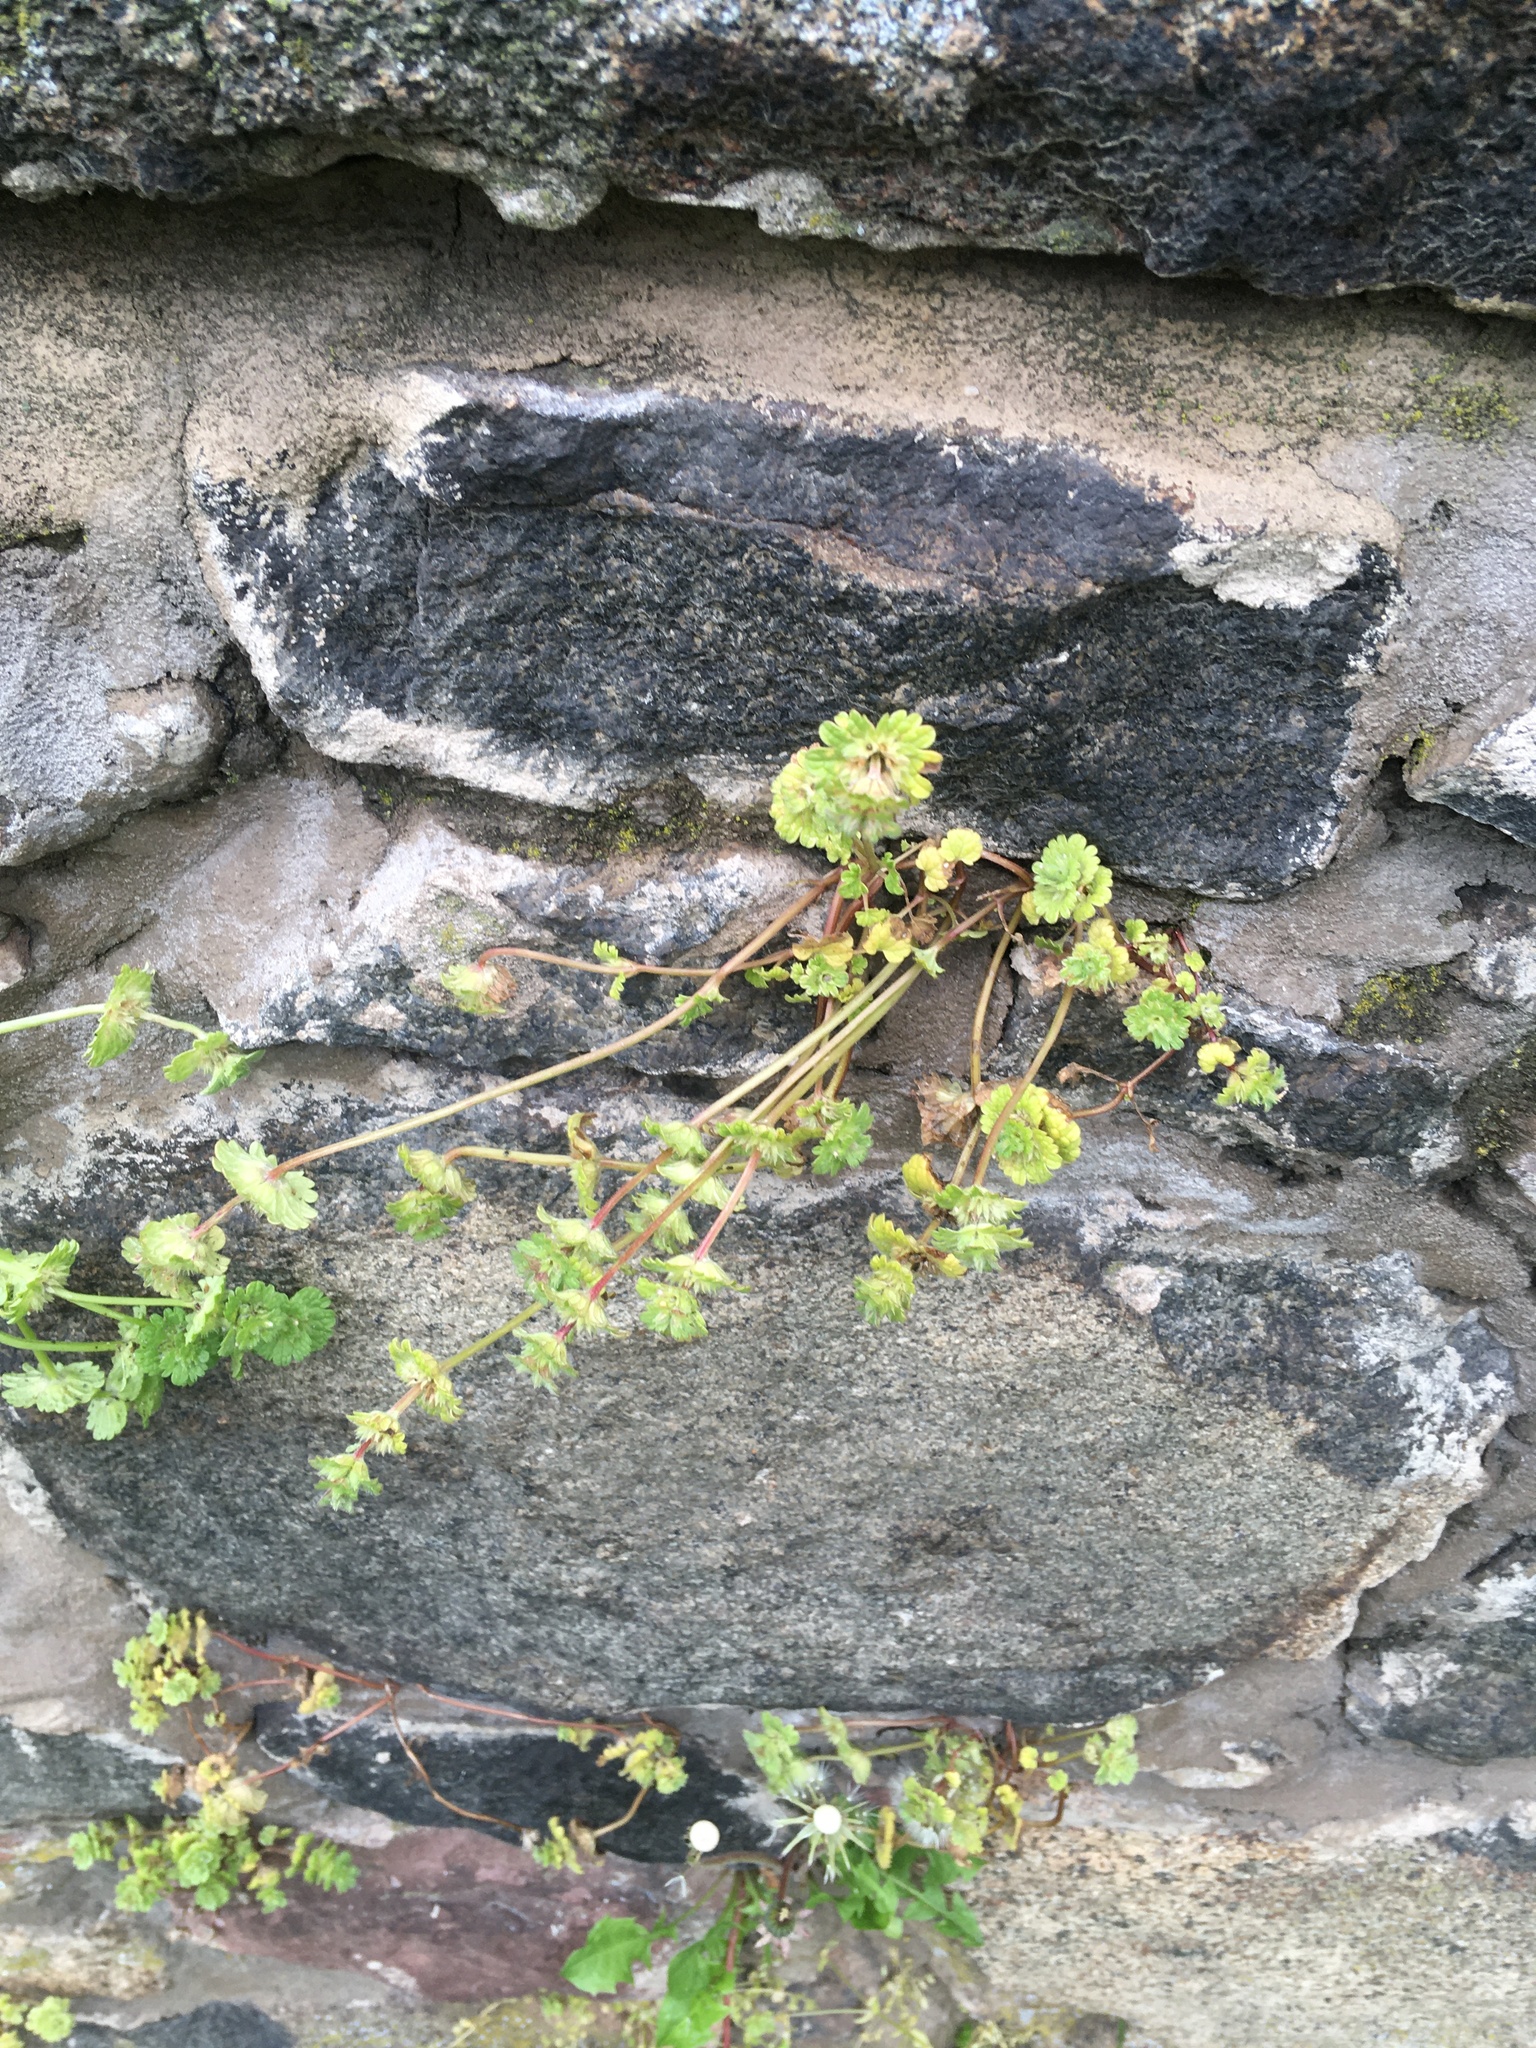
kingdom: Plantae
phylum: Tracheophyta
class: Magnoliopsida
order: Lamiales
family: Lamiaceae
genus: Lamium
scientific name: Lamium amplexicaule
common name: Henbit dead-nettle
